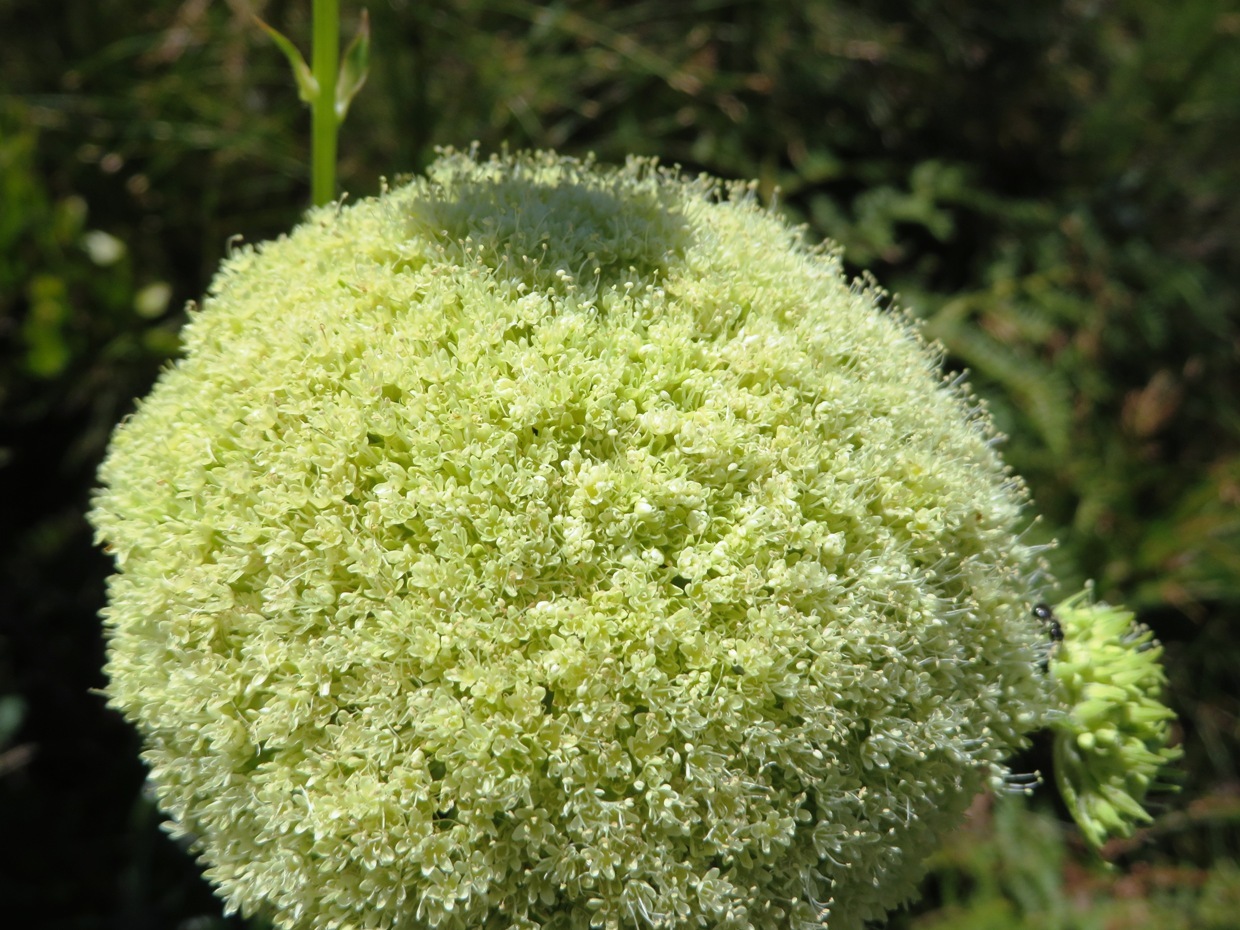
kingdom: Plantae
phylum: Tracheophyta
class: Magnoliopsida
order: Apiales
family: Apiaceae
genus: Hermas
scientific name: Hermas villosa
